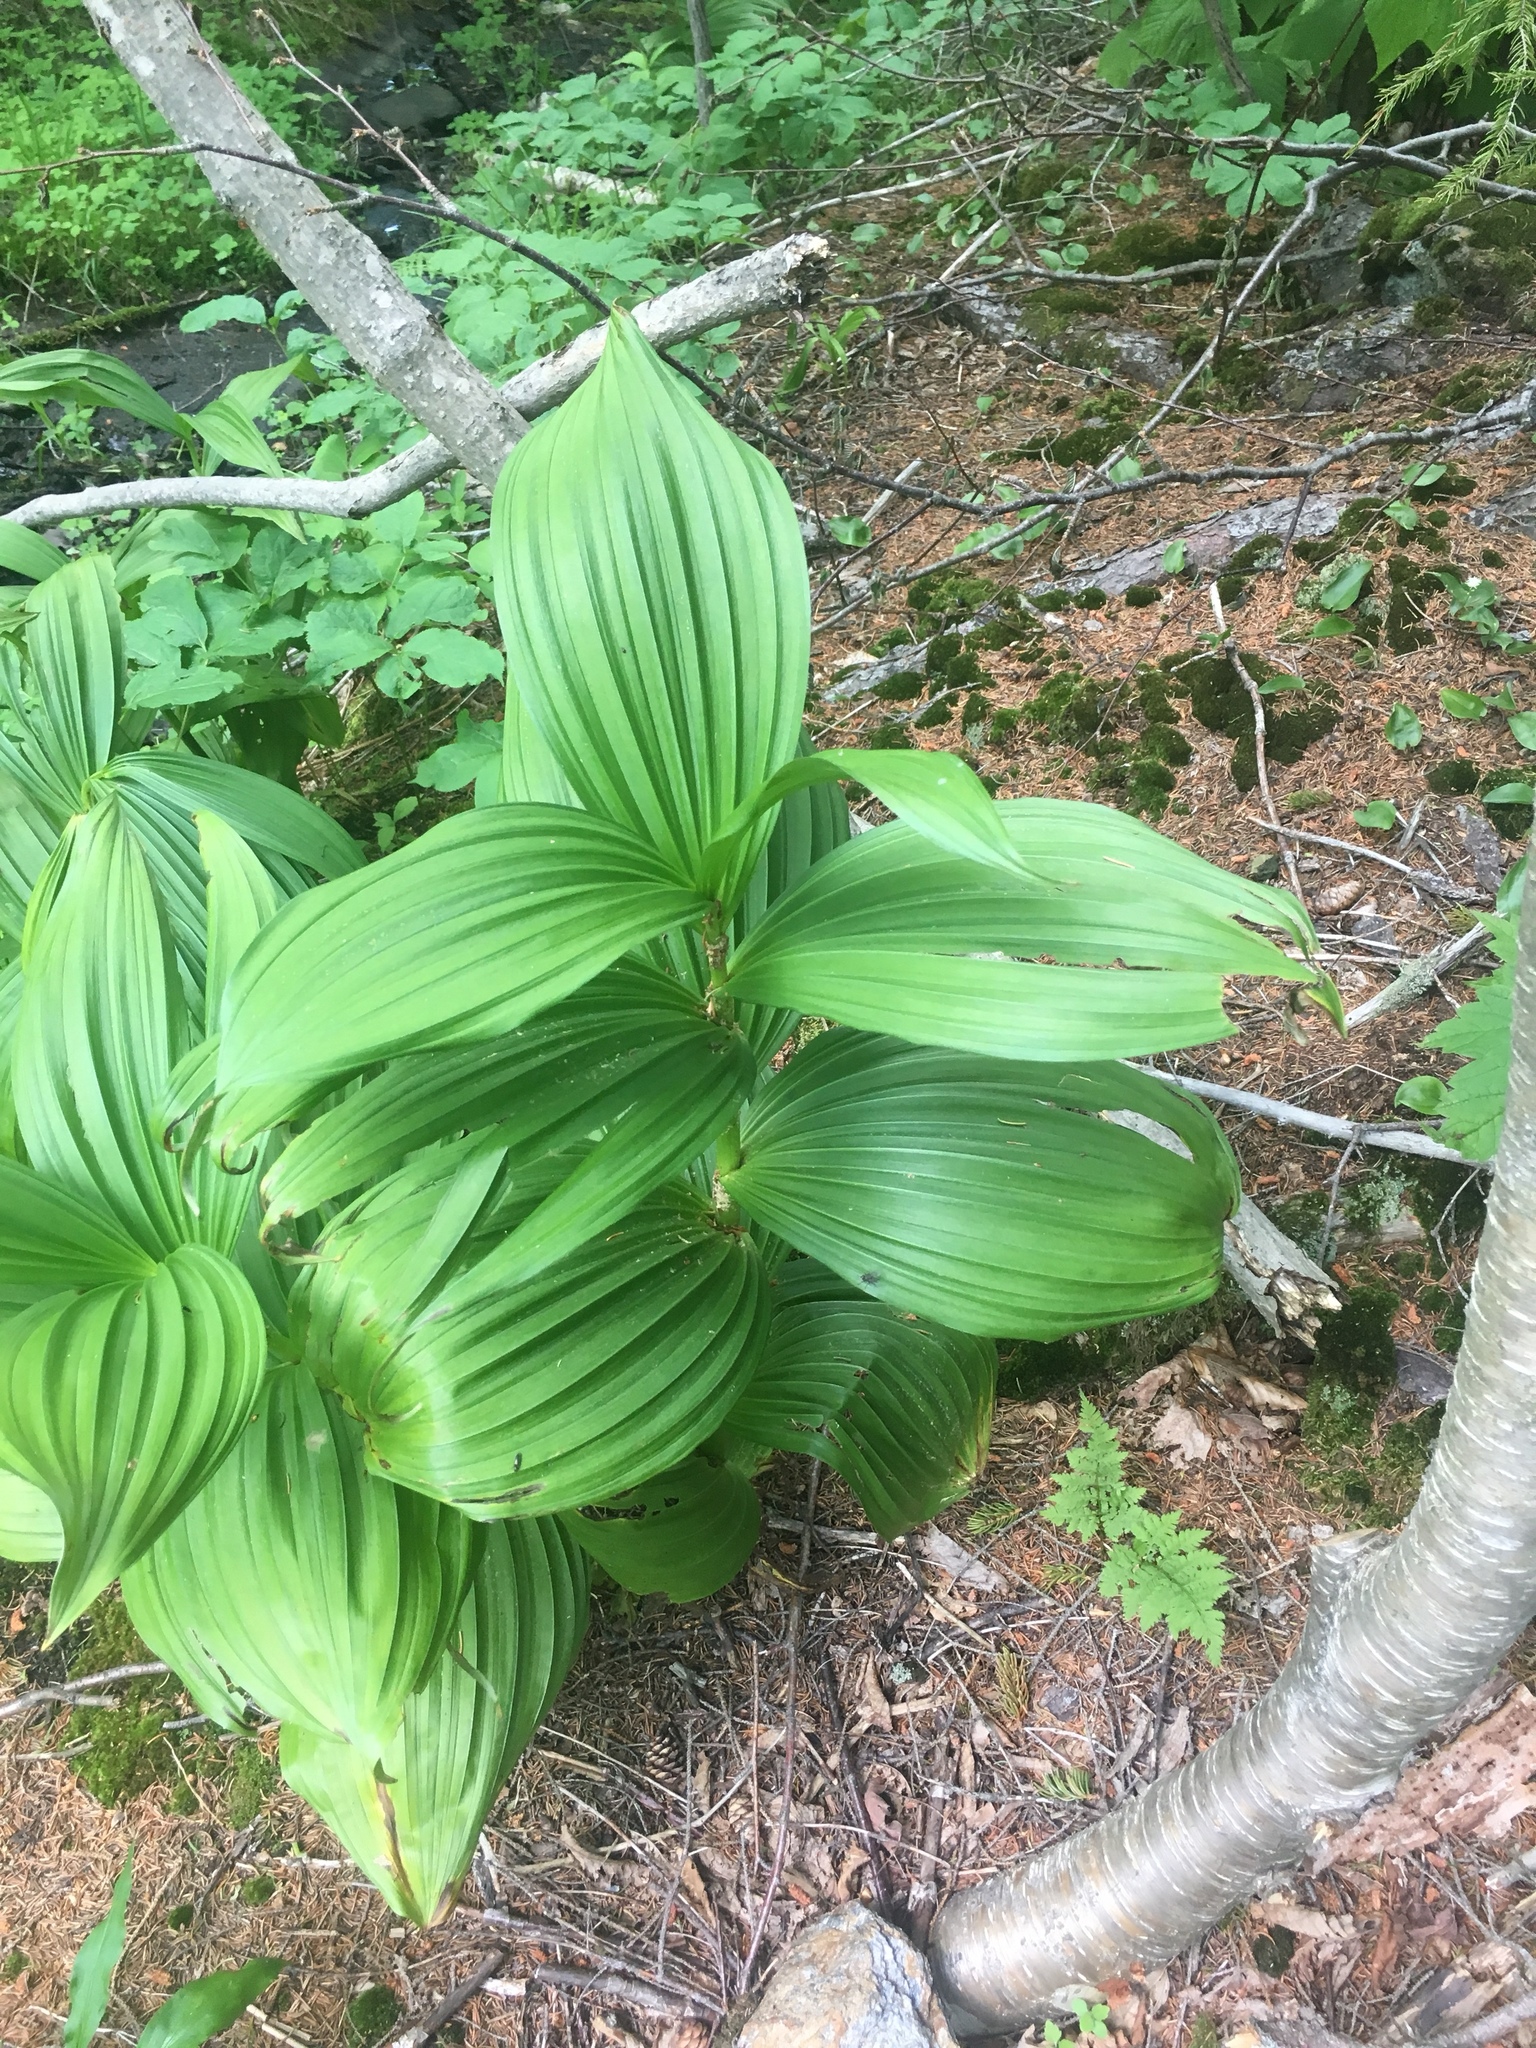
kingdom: Plantae
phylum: Tracheophyta
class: Liliopsida
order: Liliales
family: Melanthiaceae
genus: Veratrum
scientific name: Veratrum viride
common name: American false hellebore
